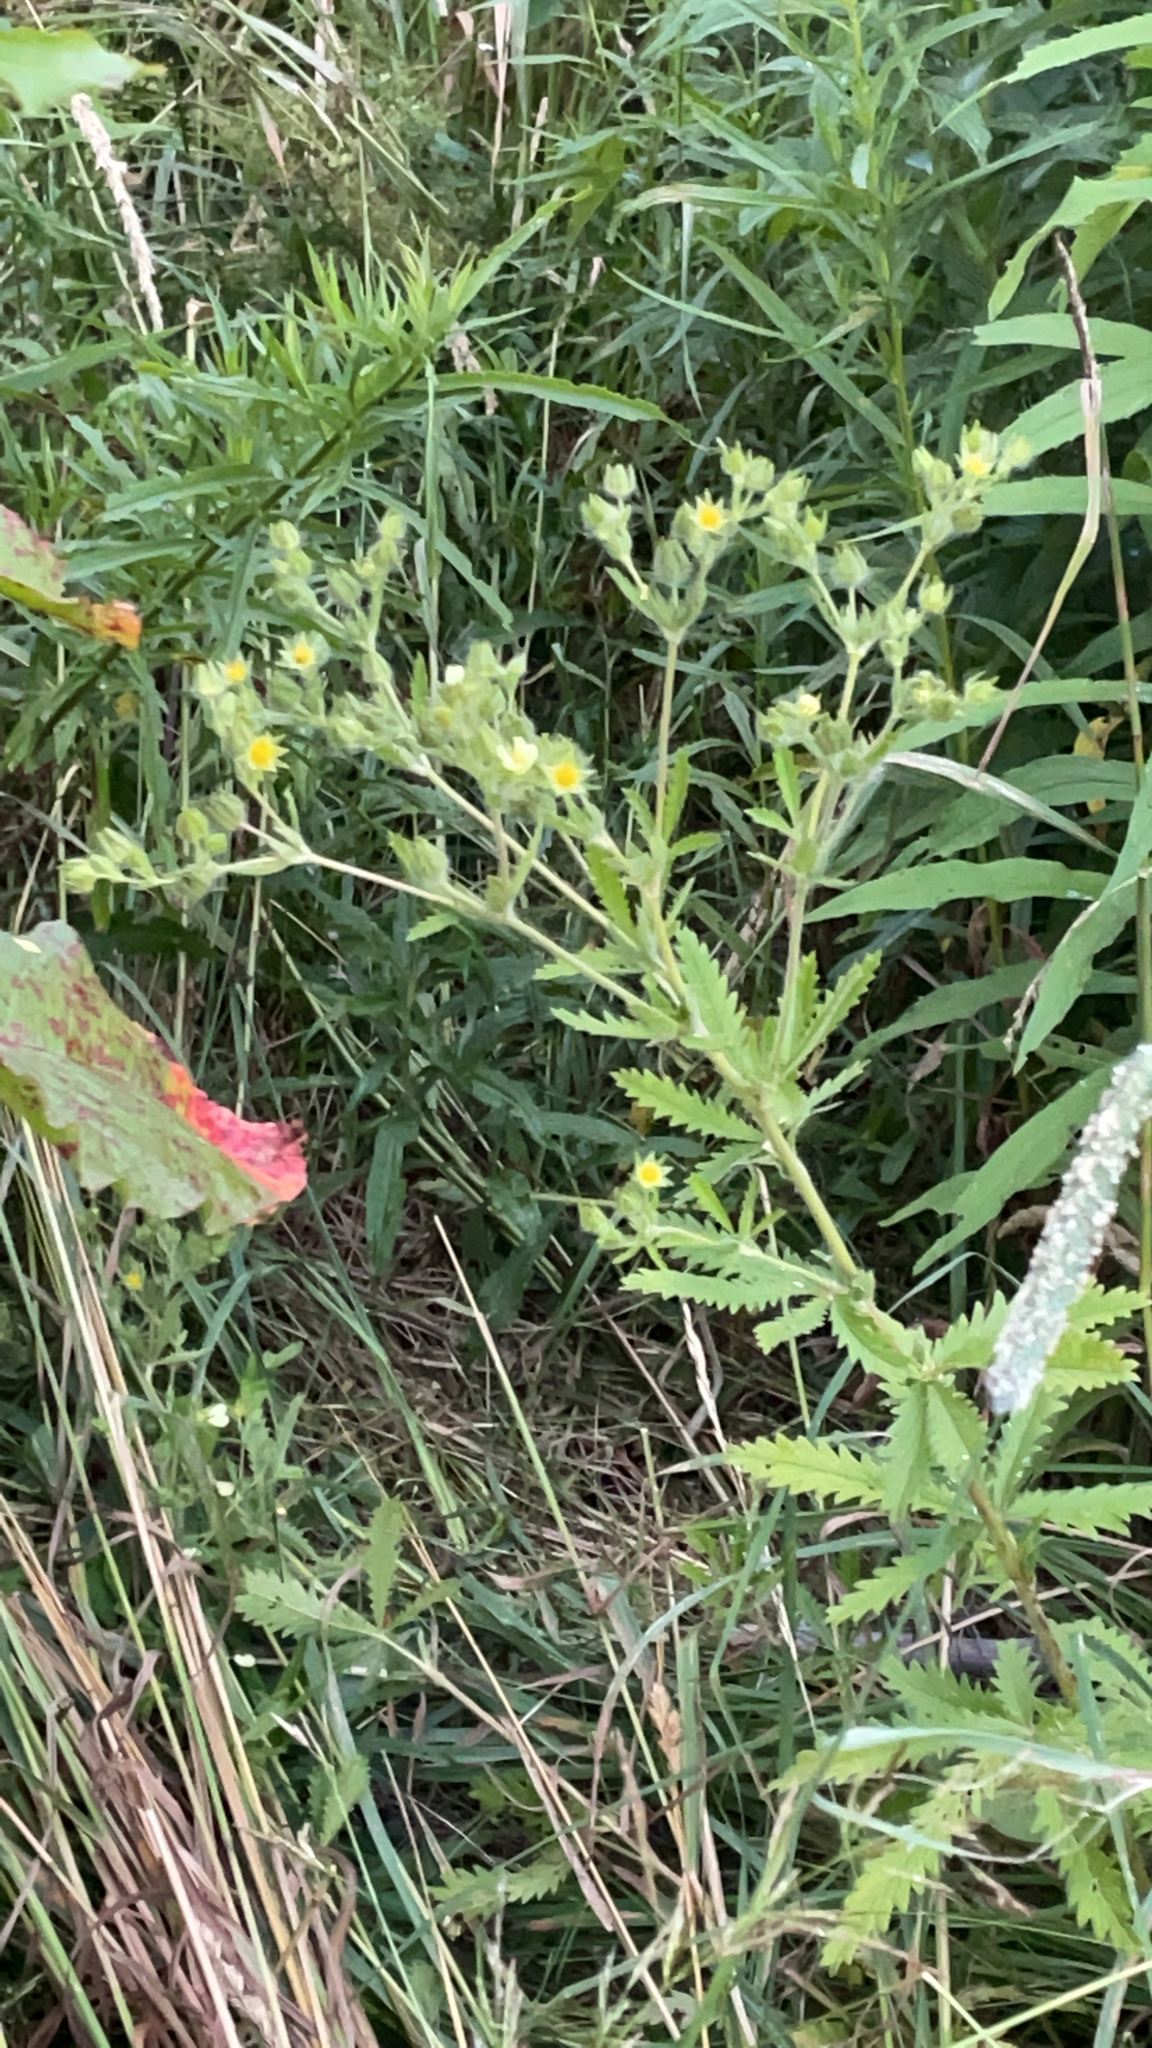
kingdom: Plantae
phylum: Tracheophyta
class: Magnoliopsida
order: Rosales
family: Rosaceae
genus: Potentilla
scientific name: Potentilla recta
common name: Sulphur cinquefoil
